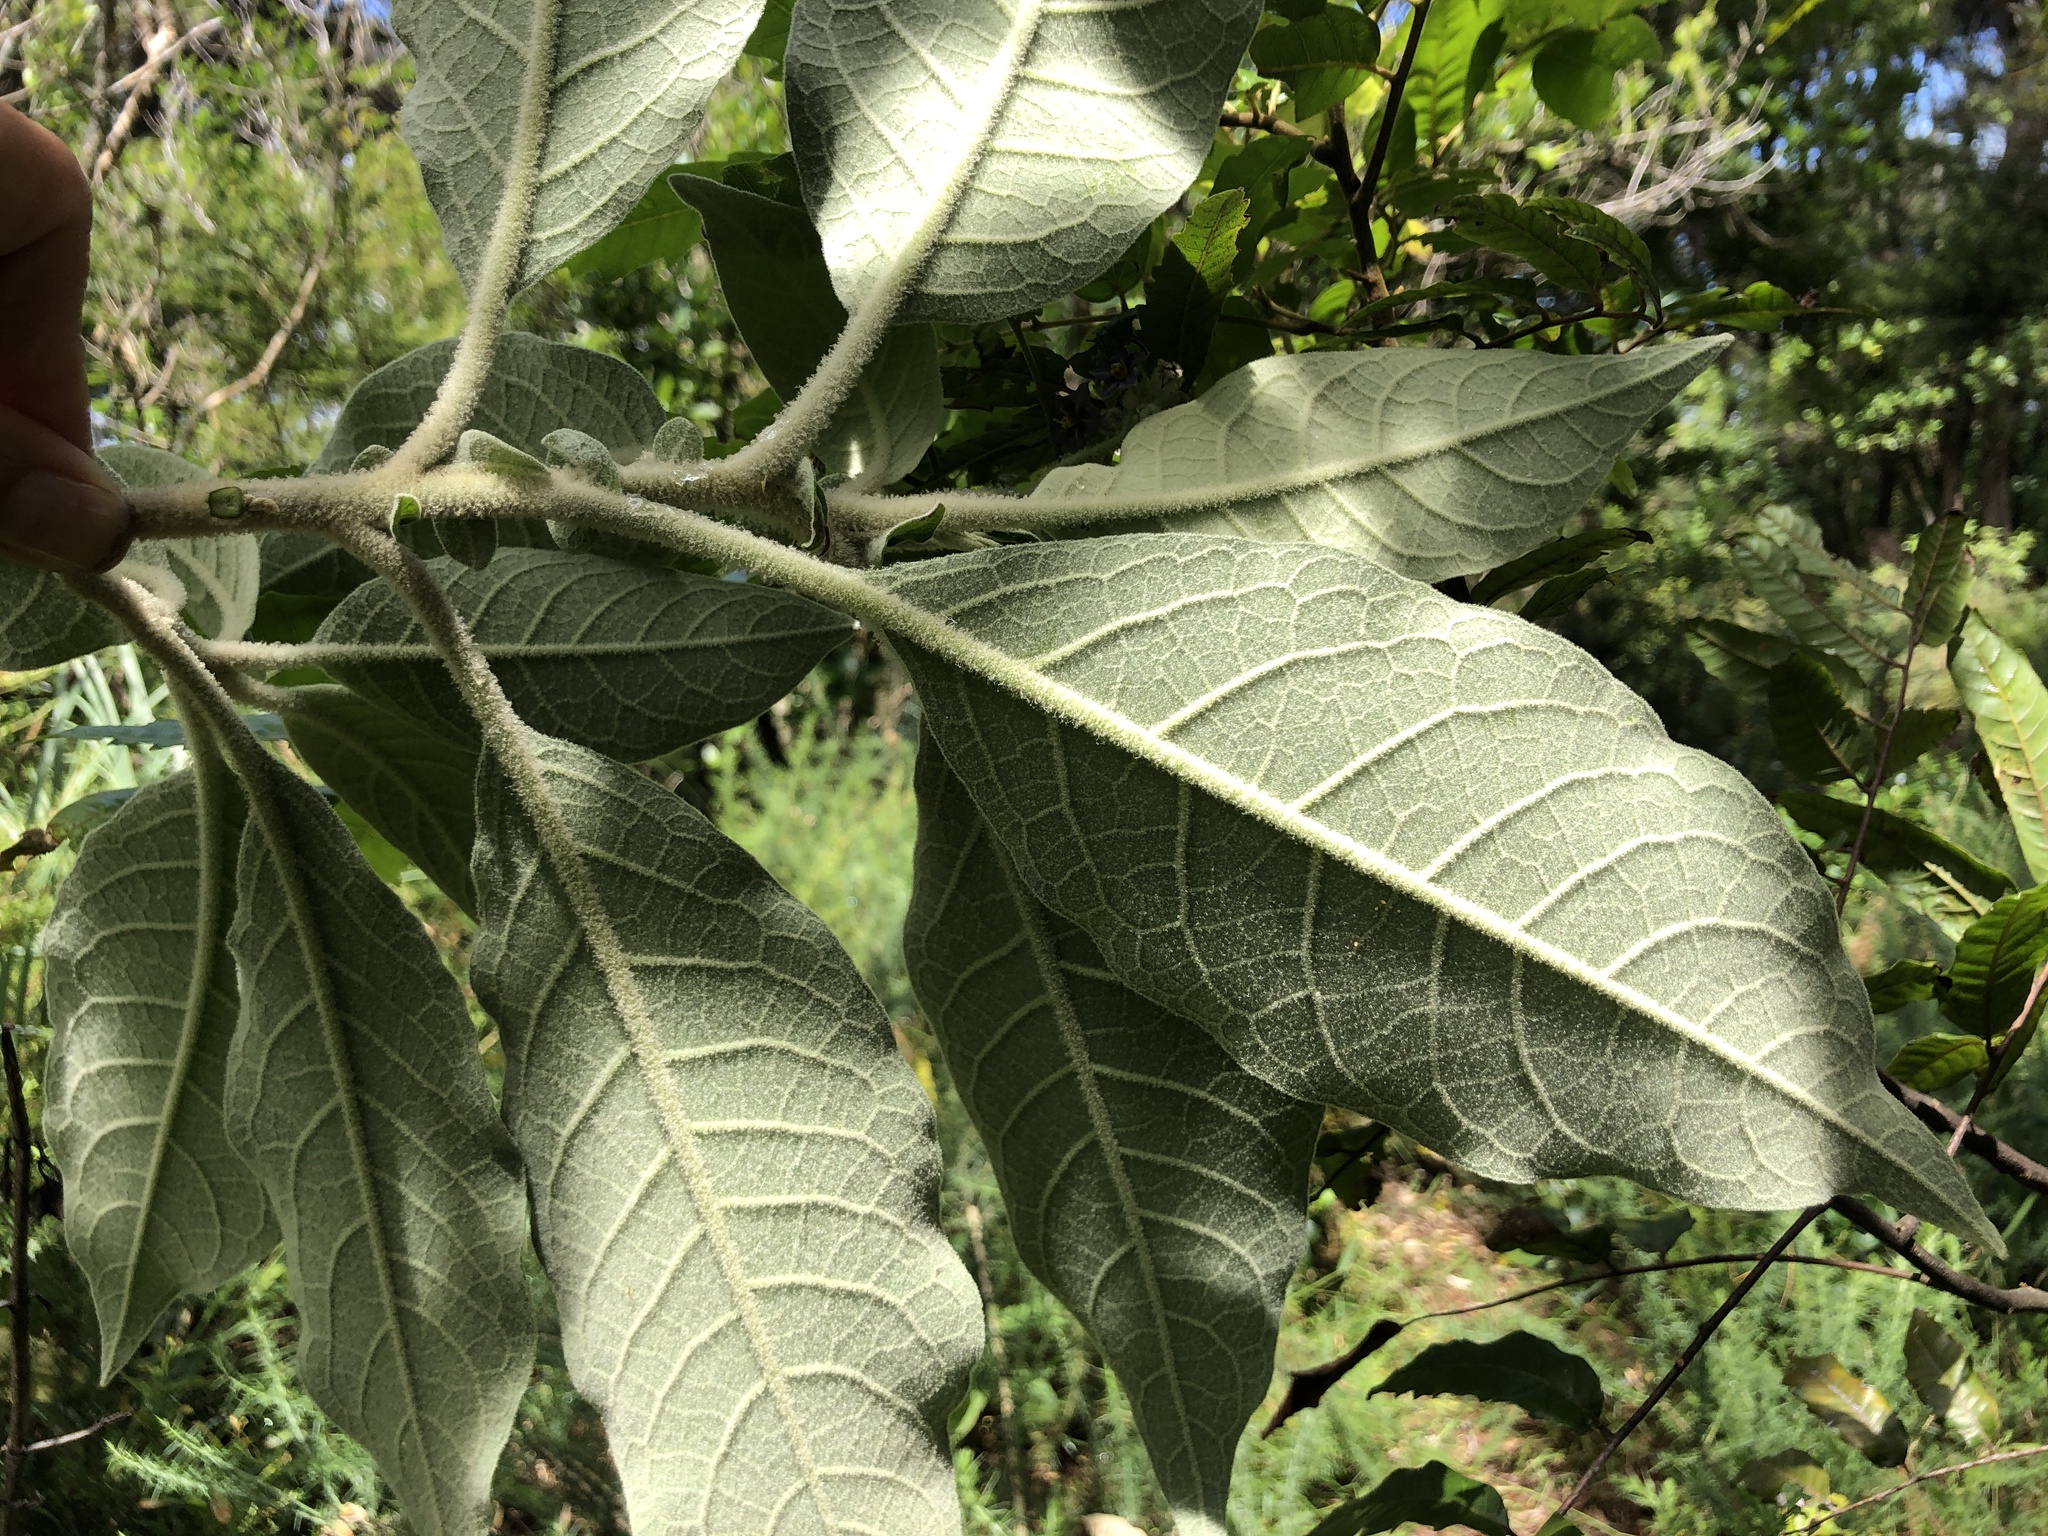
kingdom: Plantae
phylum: Tracheophyta
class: Magnoliopsida
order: Solanales
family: Solanaceae
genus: Solanum
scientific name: Solanum mauritianum
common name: Earleaf nightshade
